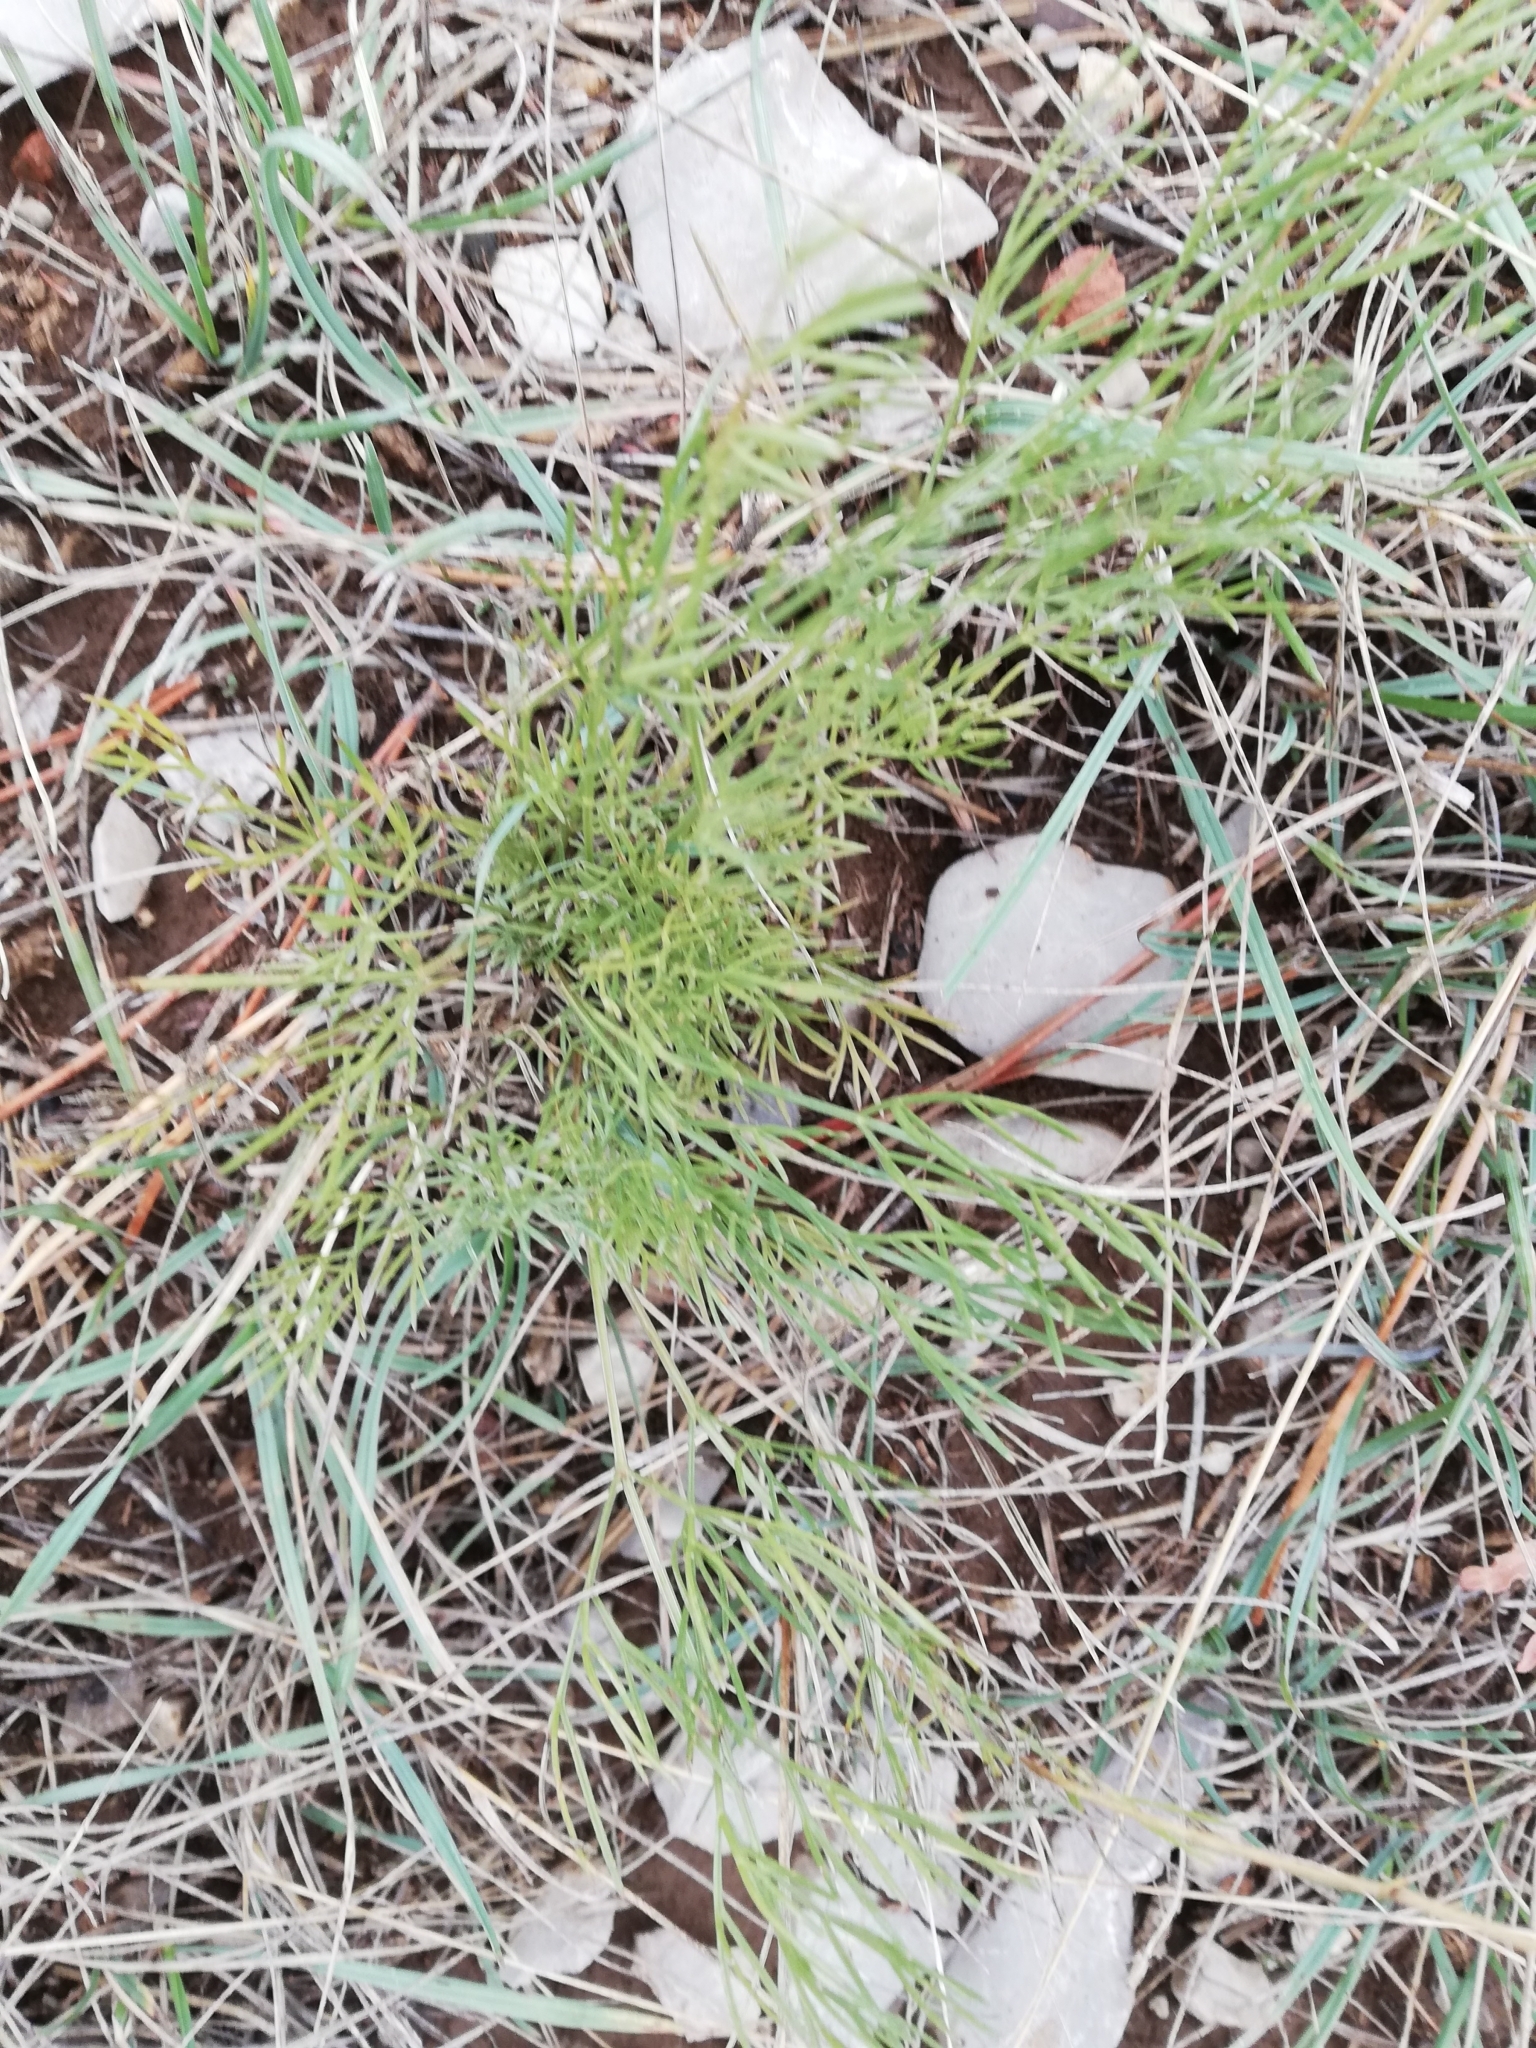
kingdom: Plantae
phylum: Tracheophyta
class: Magnoliopsida
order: Apiales
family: Apiaceae
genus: Seseli
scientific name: Seseli arenarium
